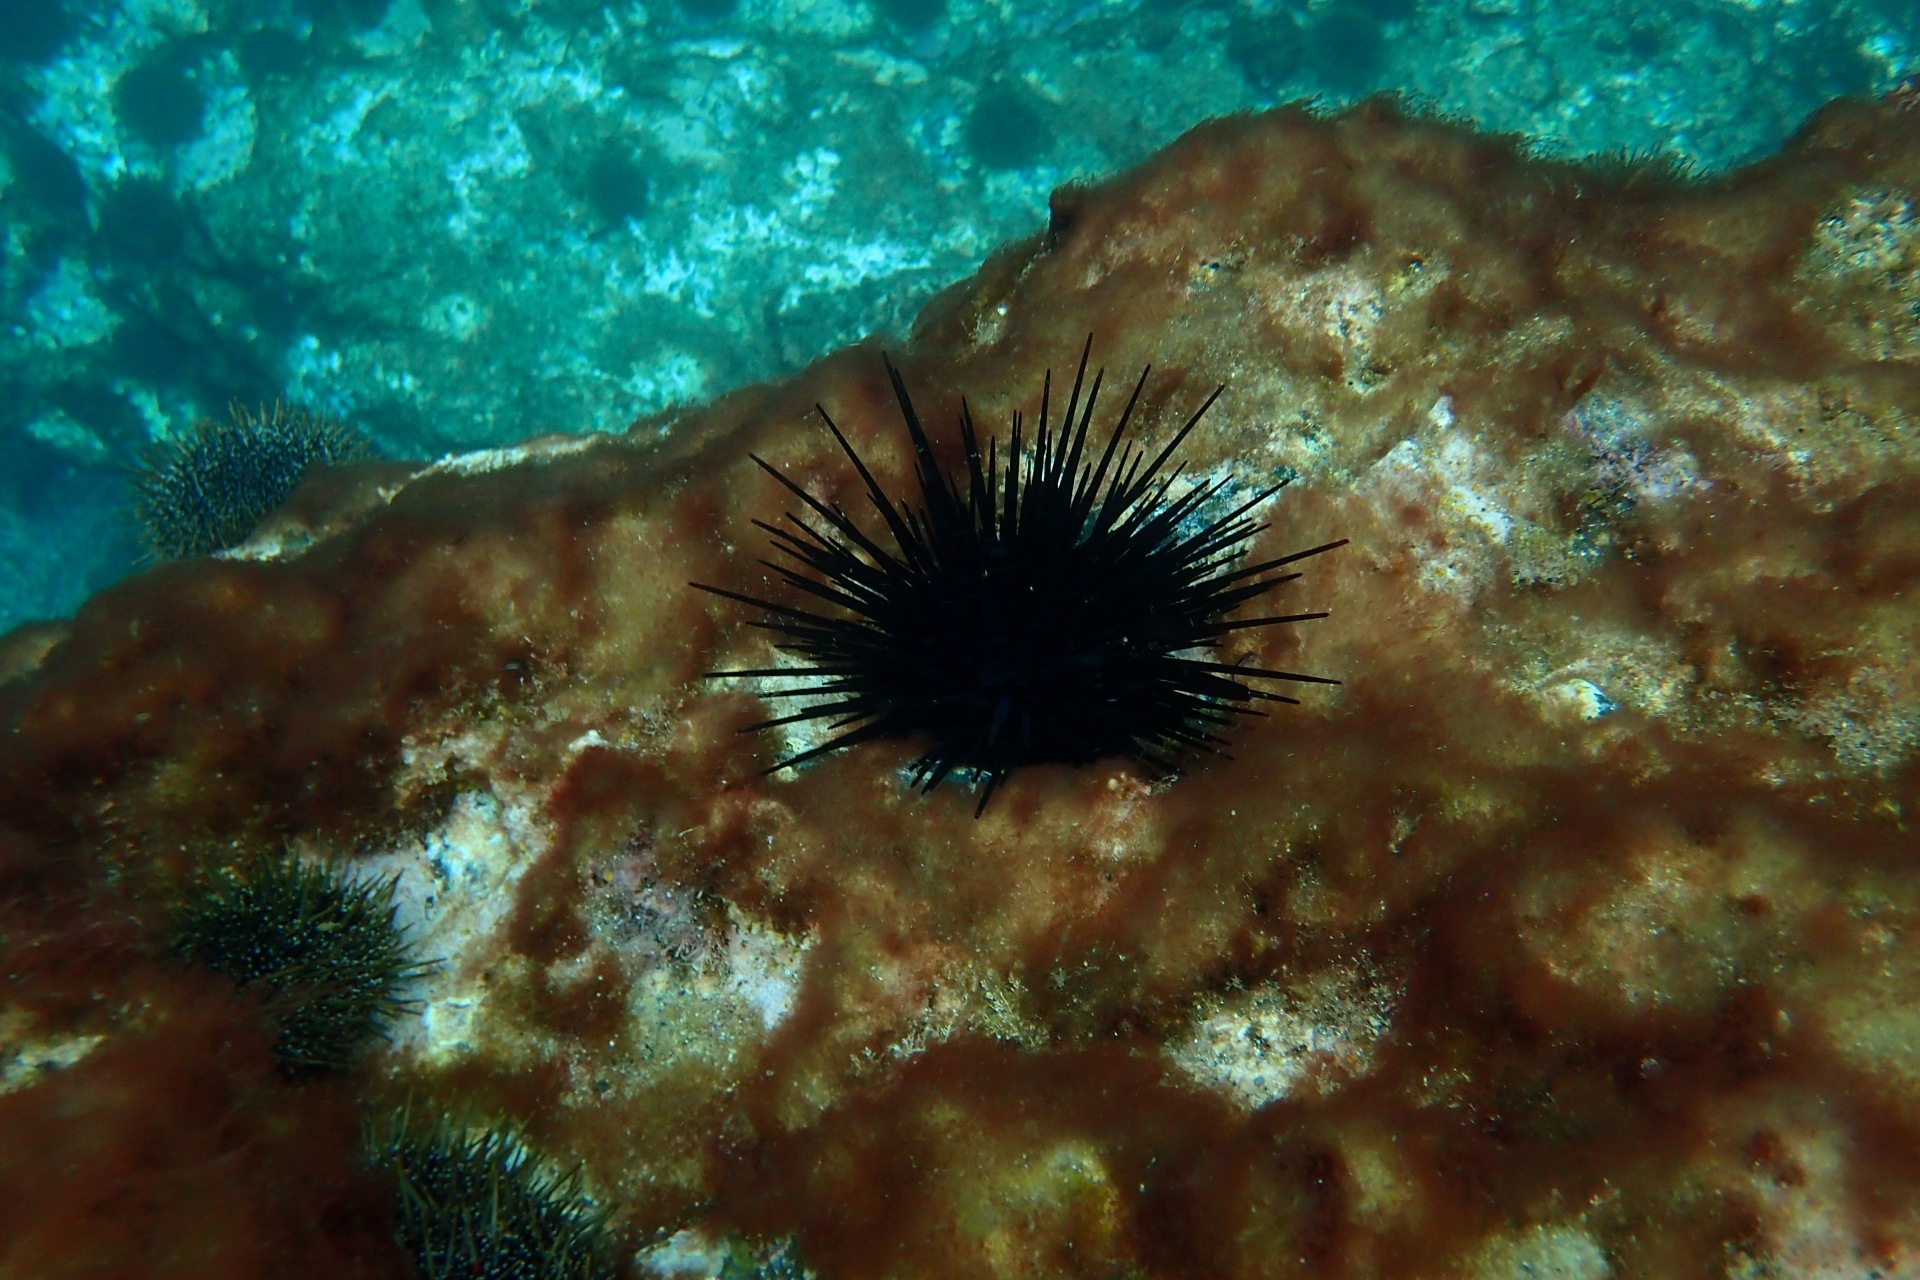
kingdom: Animalia
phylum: Echinodermata
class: Echinoidea
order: Diadematoida
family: Diadematidae
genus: Centrostephanus
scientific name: Centrostephanus rodgersii
